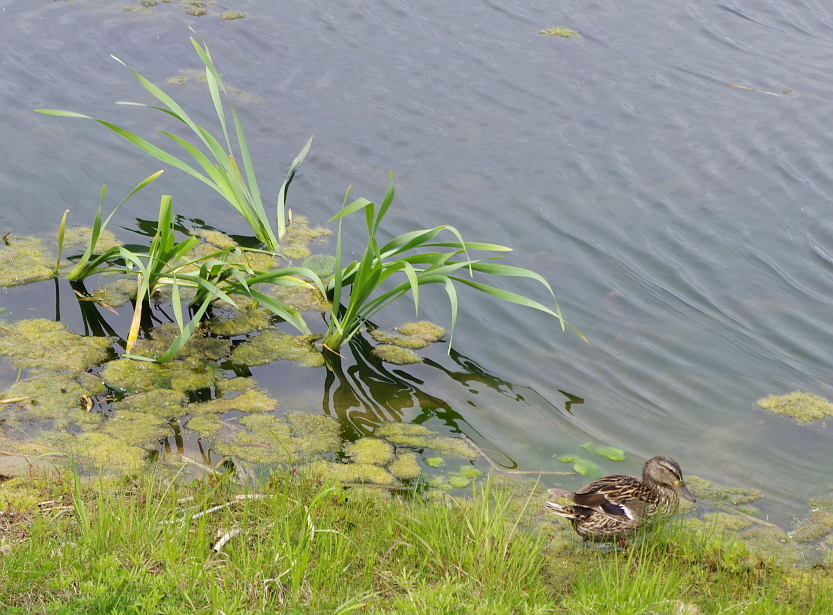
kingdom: Animalia
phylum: Chordata
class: Aves
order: Anseriformes
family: Anatidae
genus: Anas
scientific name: Anas platyrhynchos
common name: Mallard
